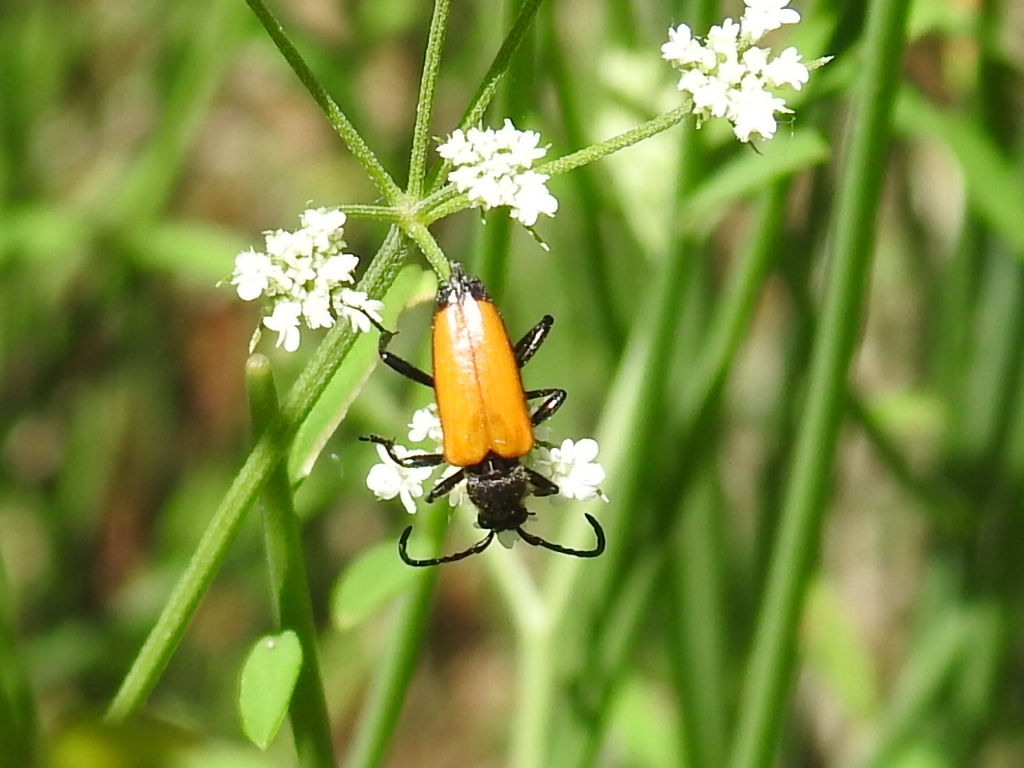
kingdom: Animalia
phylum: Arthropoda
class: Insecta
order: Coleoptera
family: Cerambycidae
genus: Paracorymbia
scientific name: Paracorymbia fulva
